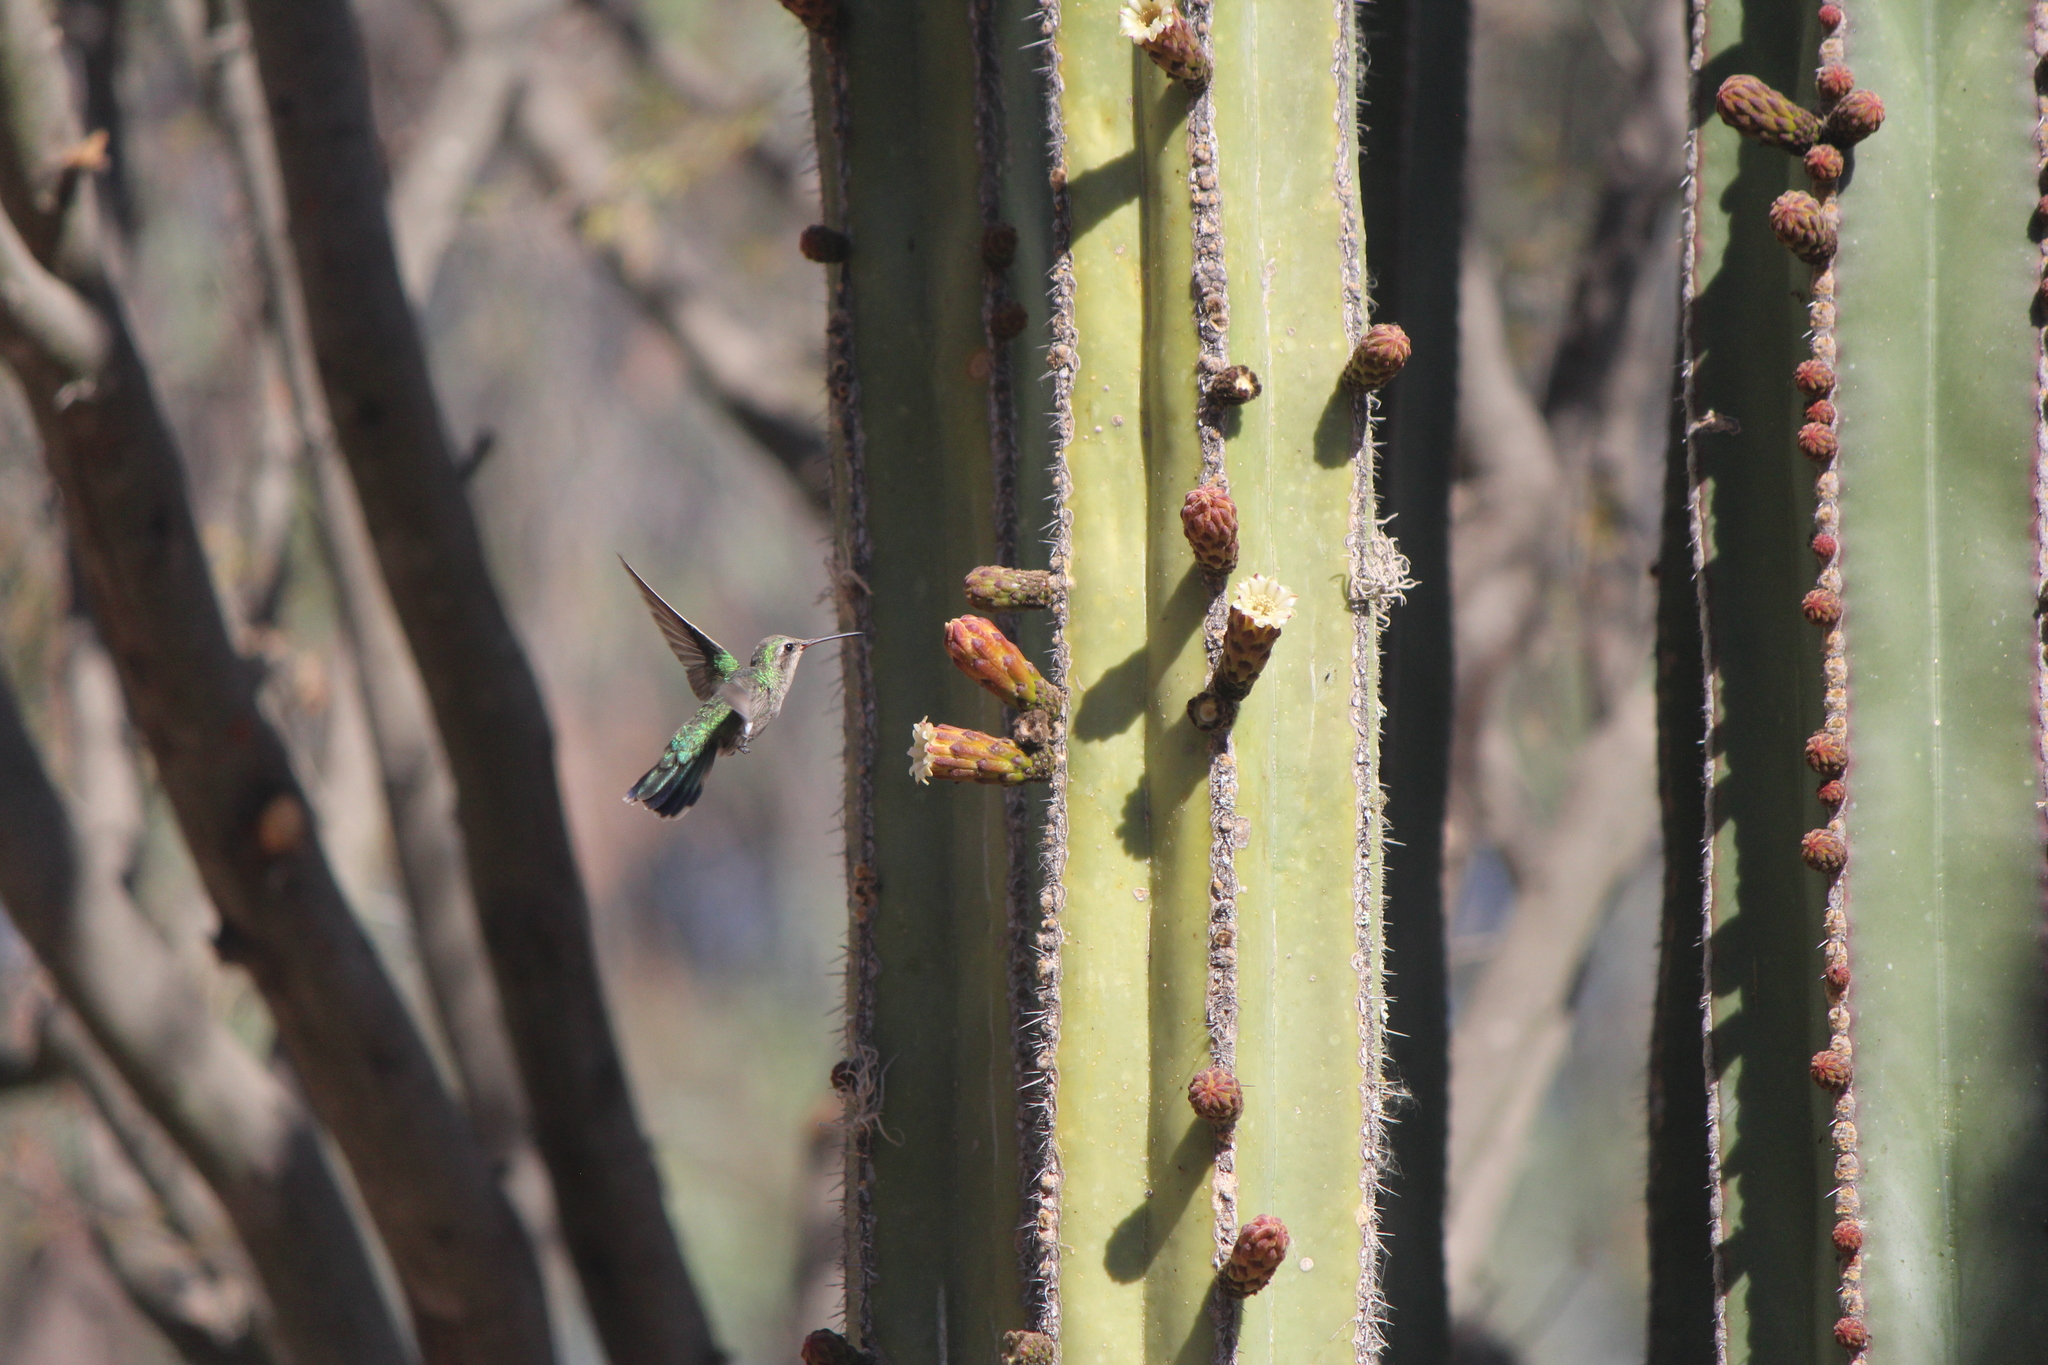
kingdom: Animalia
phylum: Chordata
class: Aves
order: Apodiformes
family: Trochilidae
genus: Cynanthus
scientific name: Cynanthus latirostris
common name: Broad-billed hummingbird
